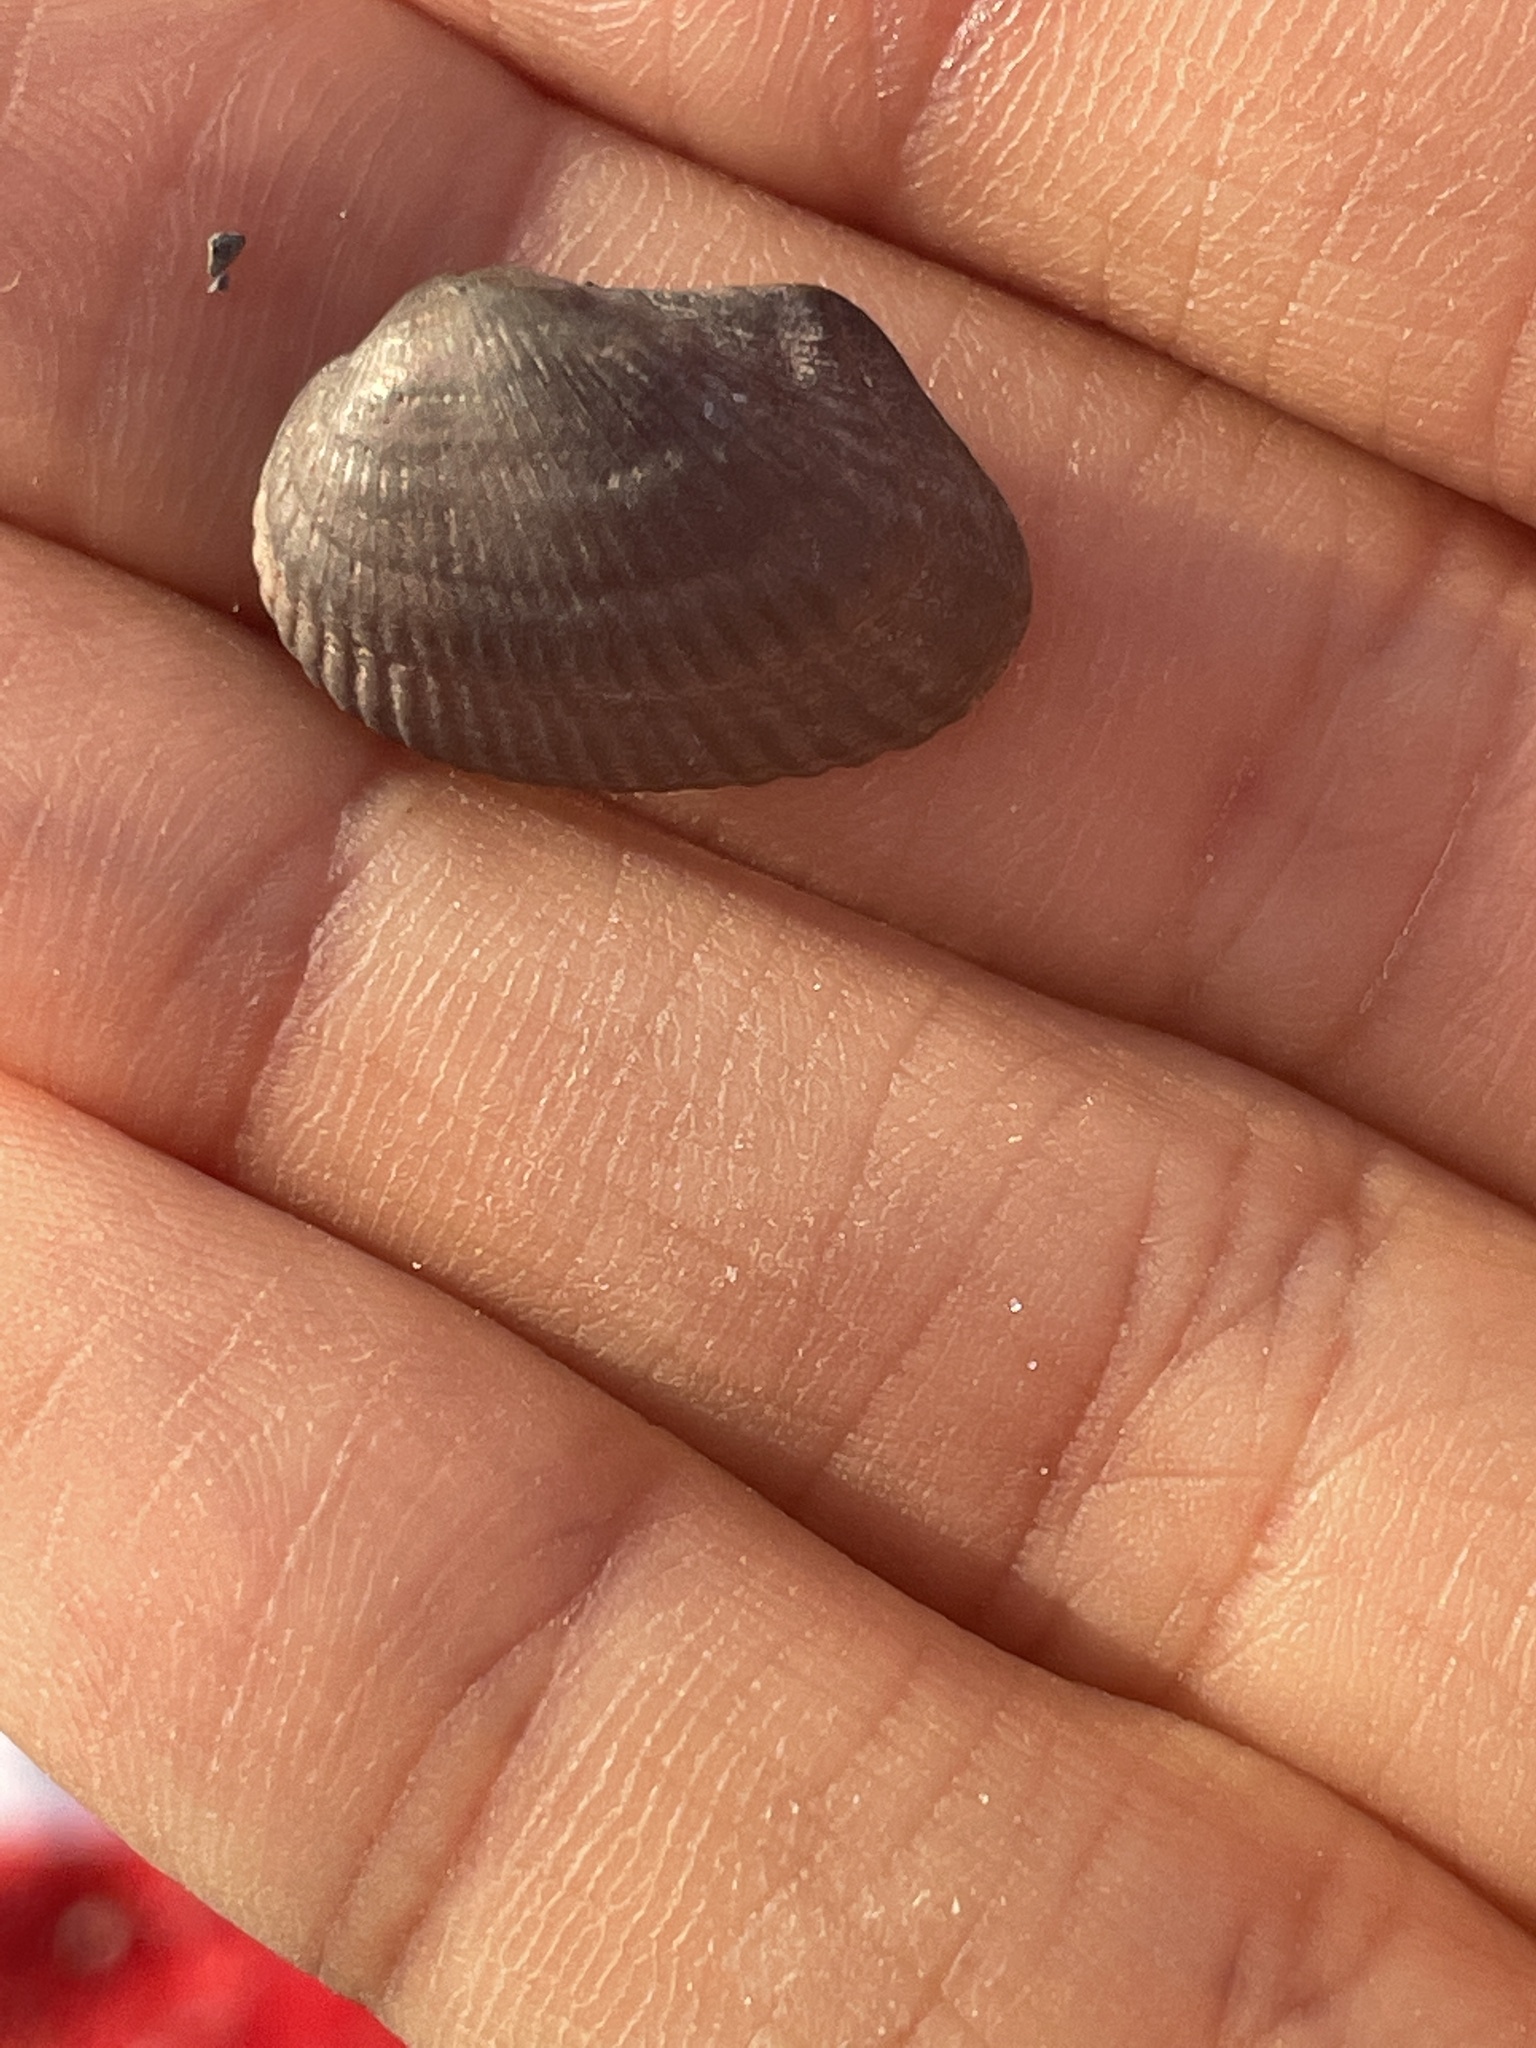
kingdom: Animalia
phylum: Mollusca
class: Bivalvia
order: Arcida
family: Arcidae
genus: Anadara
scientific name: Anadara transversa
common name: Transverse ark
